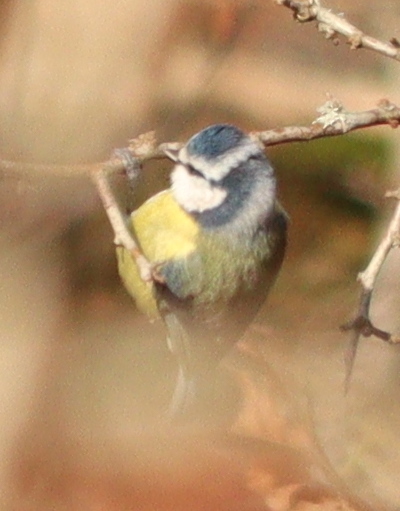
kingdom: Animalia
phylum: Chordata
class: Aves
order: Passeriformes
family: Paridae
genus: Cyanistes
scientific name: Cyanistes caeruleus
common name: Eurasian blue tit
